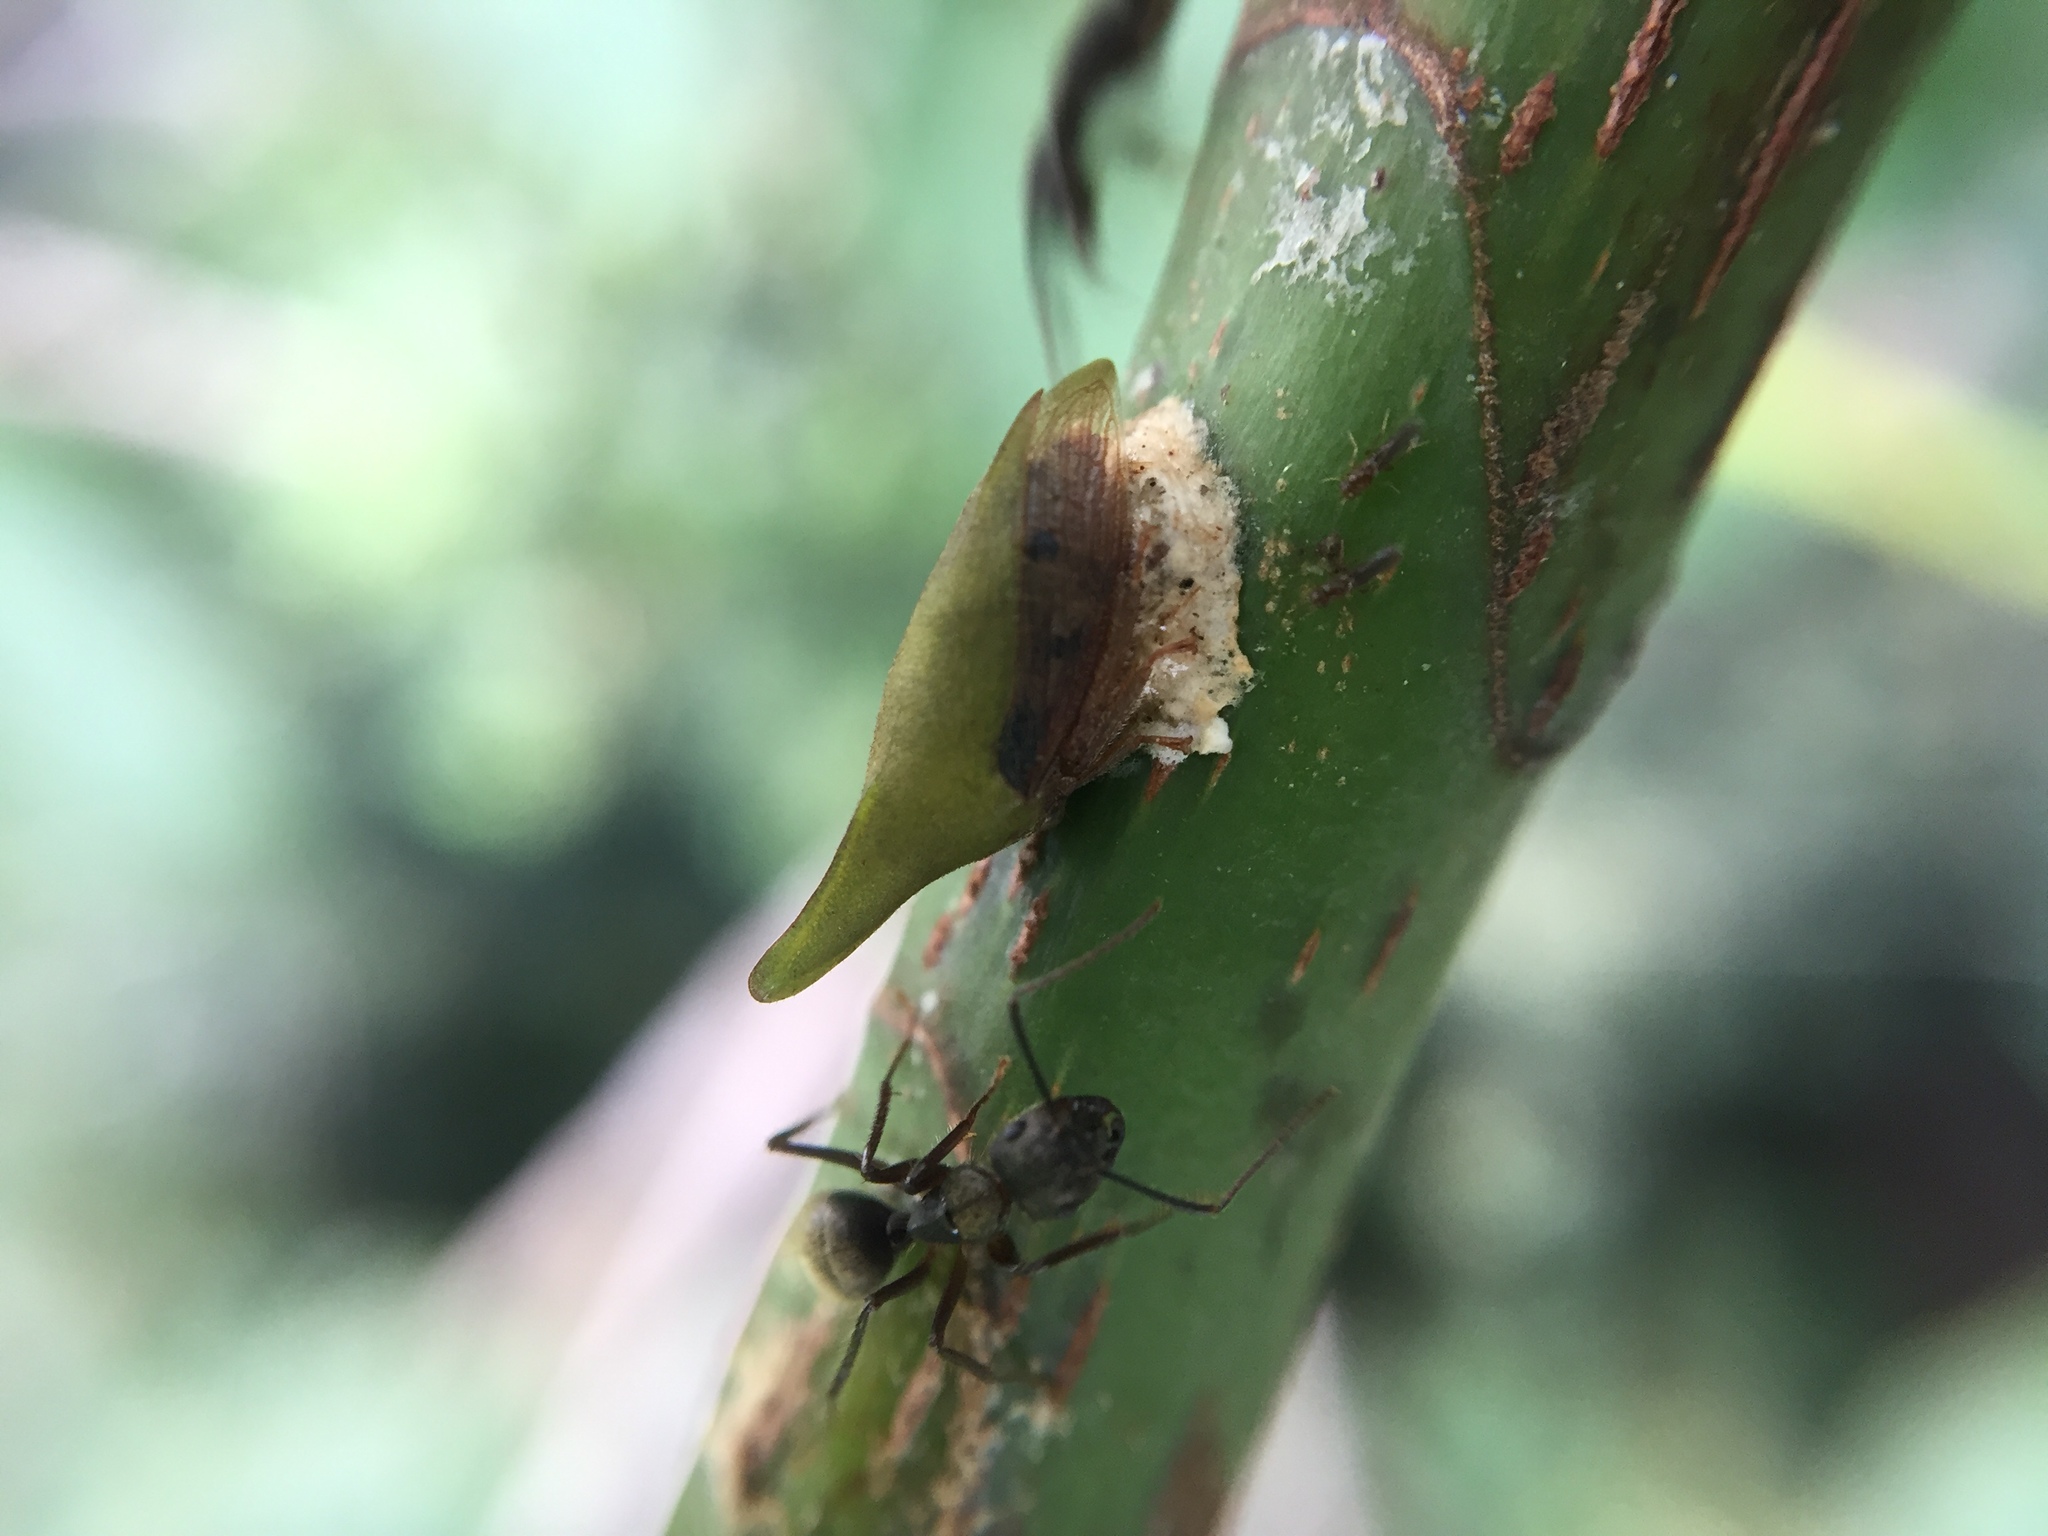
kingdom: Animalia
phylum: Arthropoda
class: Insecta
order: Hemiptera
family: Membracidae
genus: Guayaquila
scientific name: Guayaquila pallescens
